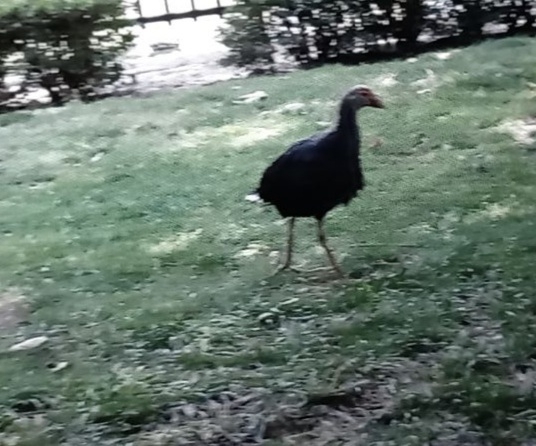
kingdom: Animalia
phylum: Chordata
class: Aves
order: Gruiformes
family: Rallidae
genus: Porphyrio
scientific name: Porphyrio porphyrio
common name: Purple swamphen
